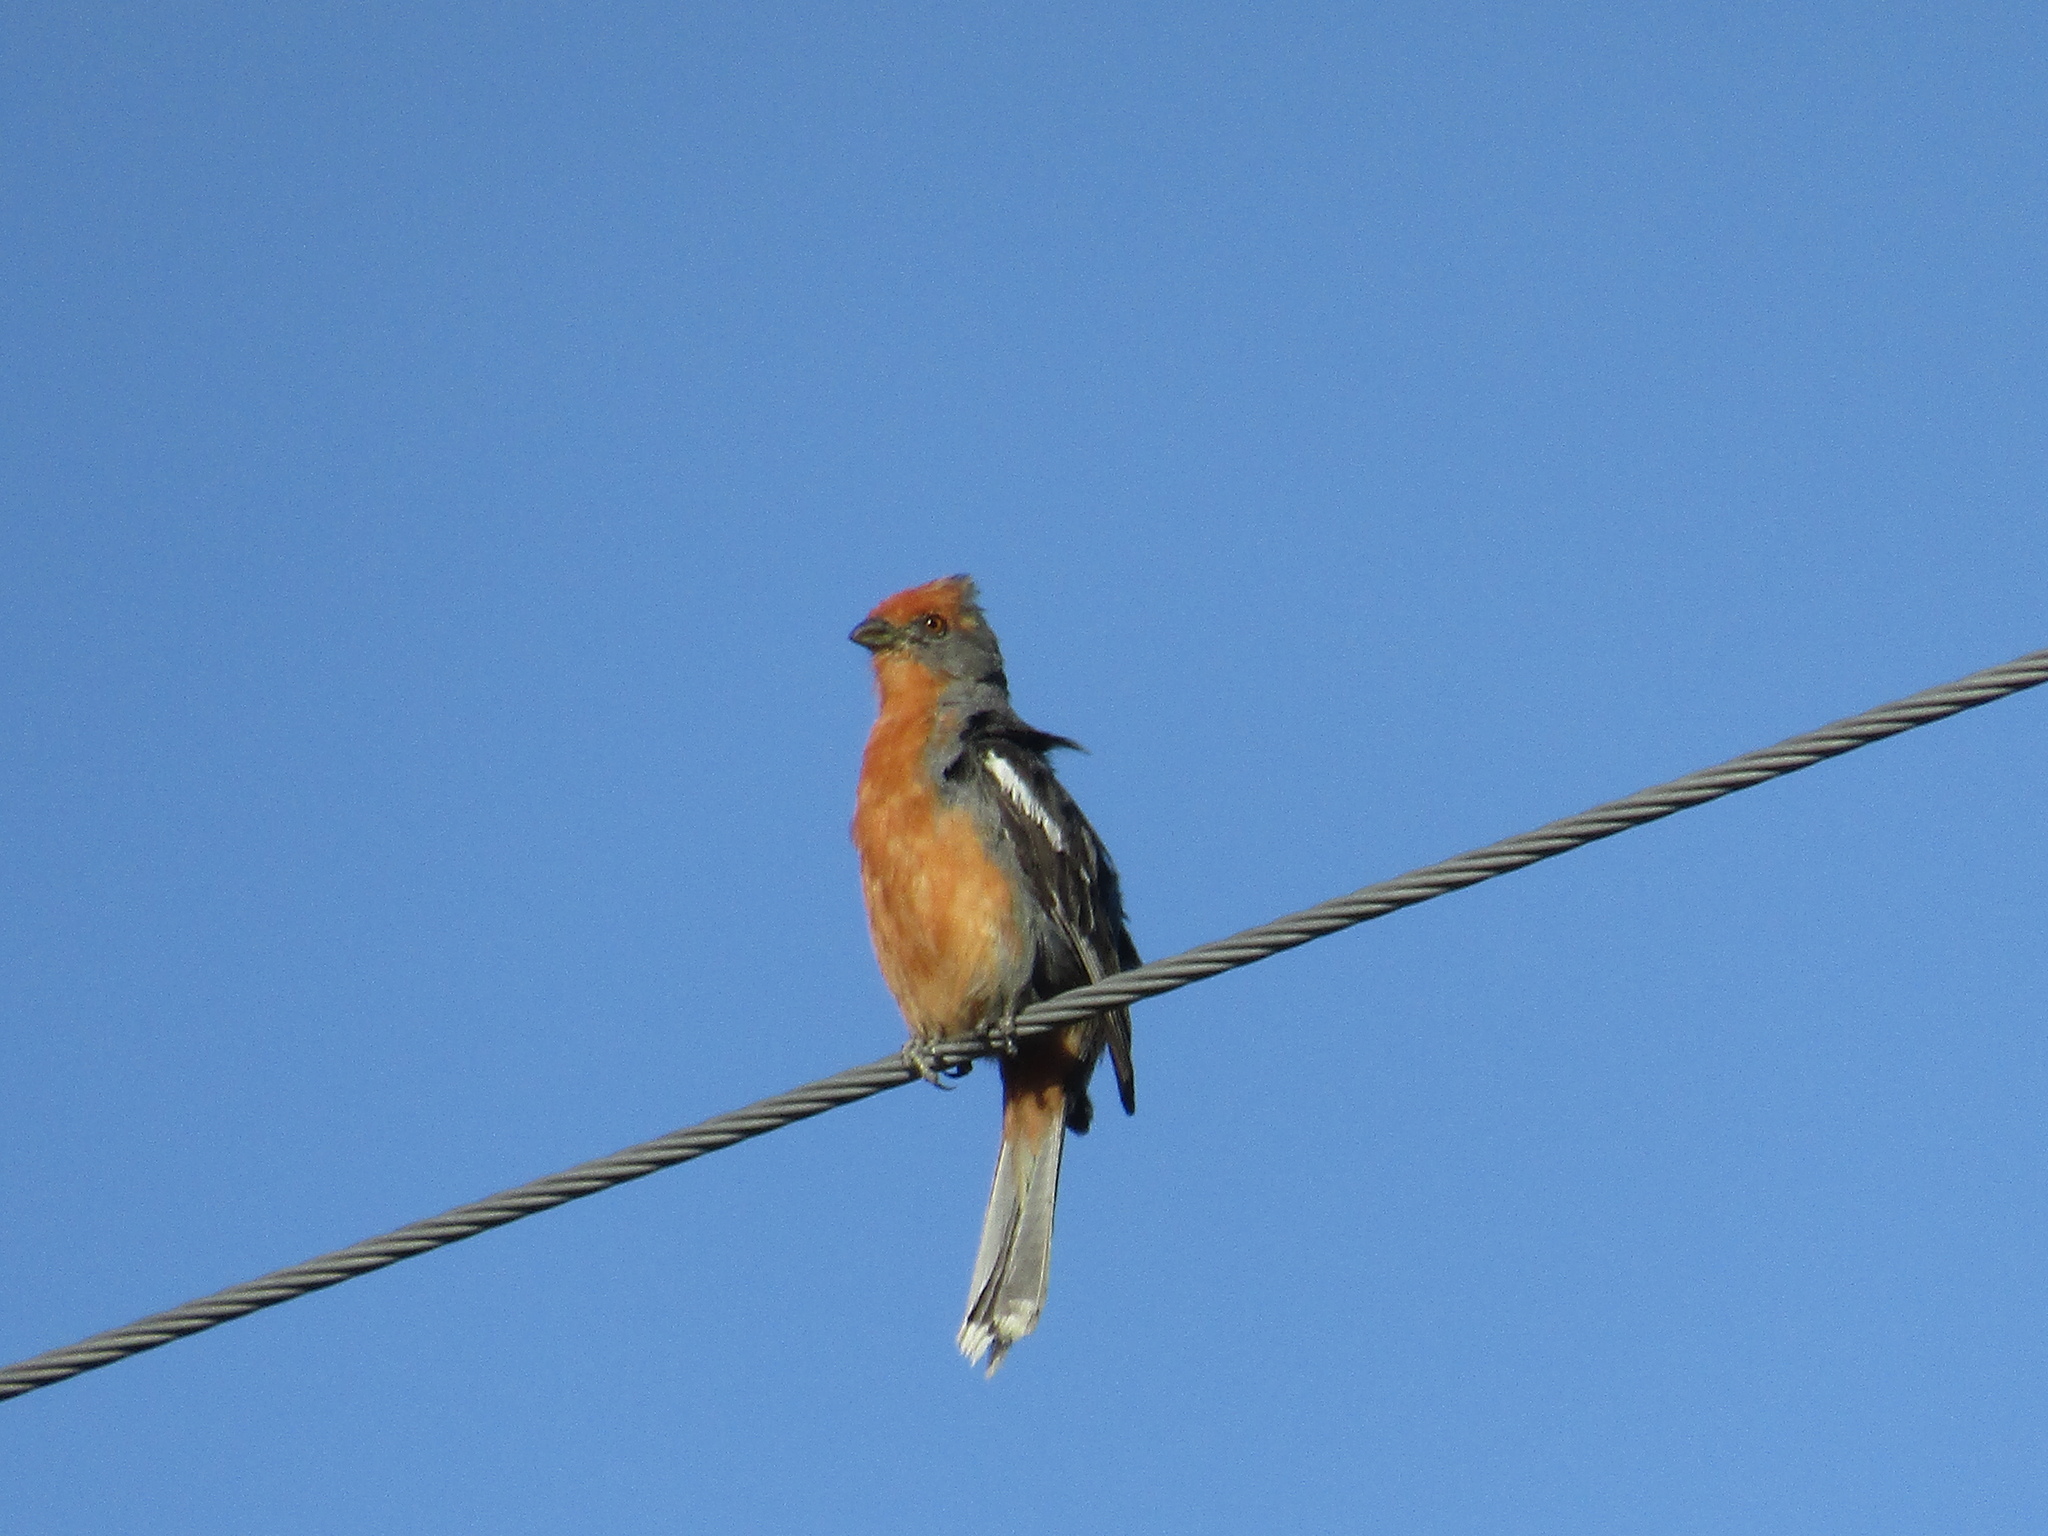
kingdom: Animalia
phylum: Chordata
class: Aves
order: Passeriformes
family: Cotingidae
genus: Phytotoma
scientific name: Phytotoma rutila
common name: White-tipped plantcutter
